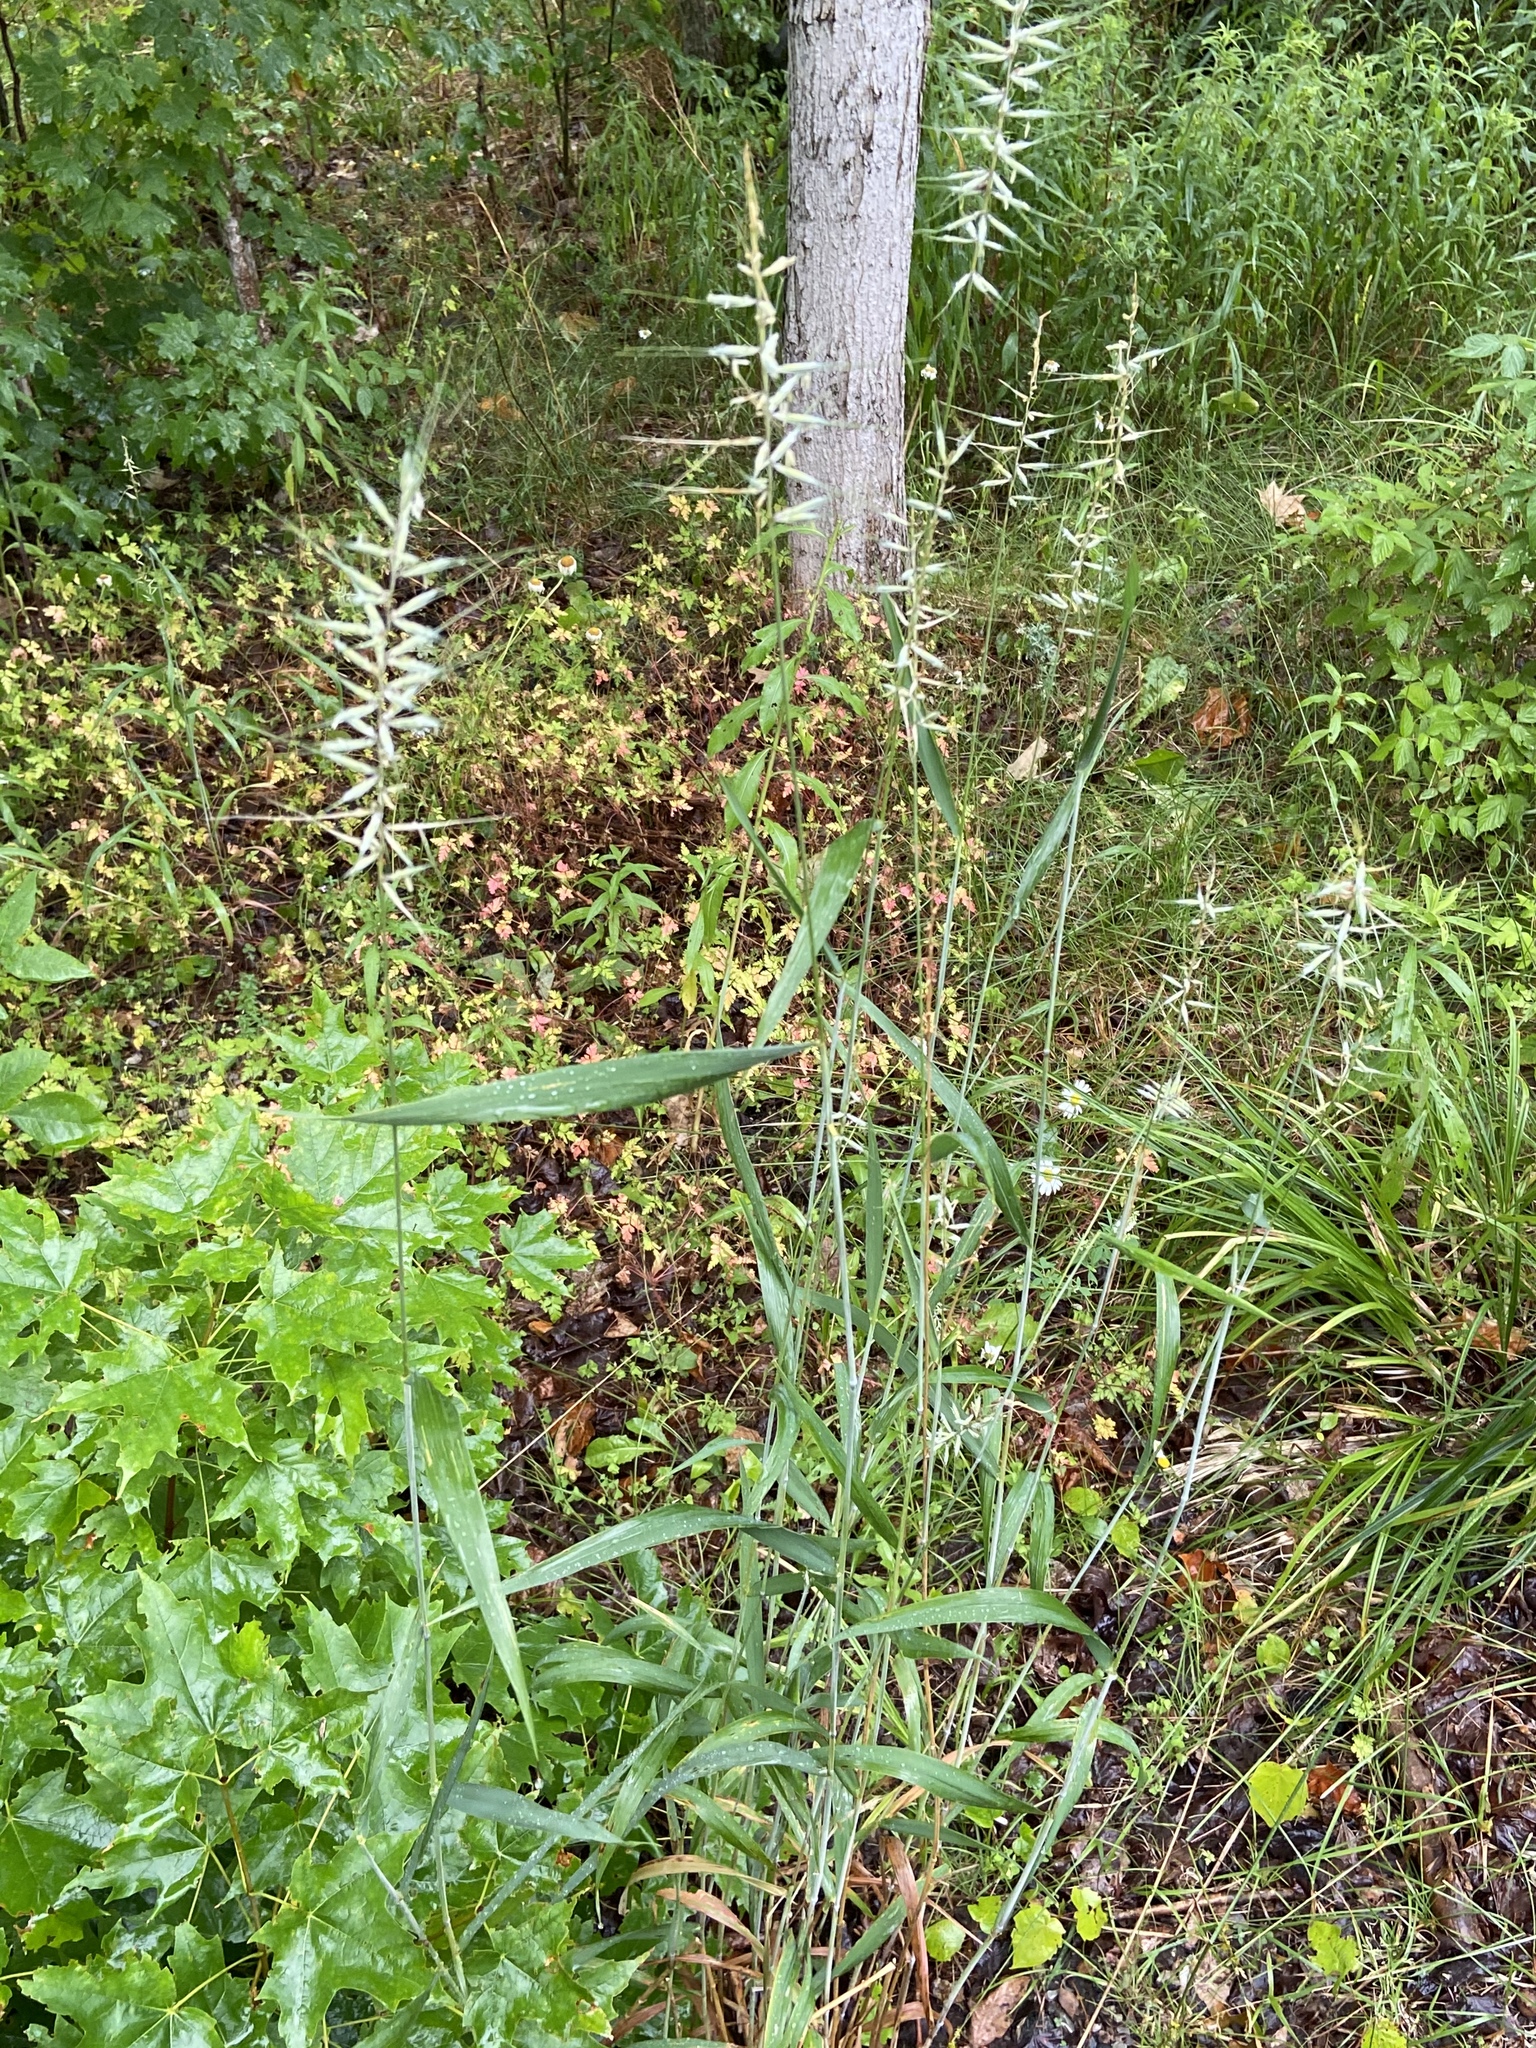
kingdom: Plantae
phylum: Tracheophyta
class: Liliopsida
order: Poales
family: Poaceae
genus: Elymus
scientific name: Elymus hystrix
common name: Bottlebrush grass
